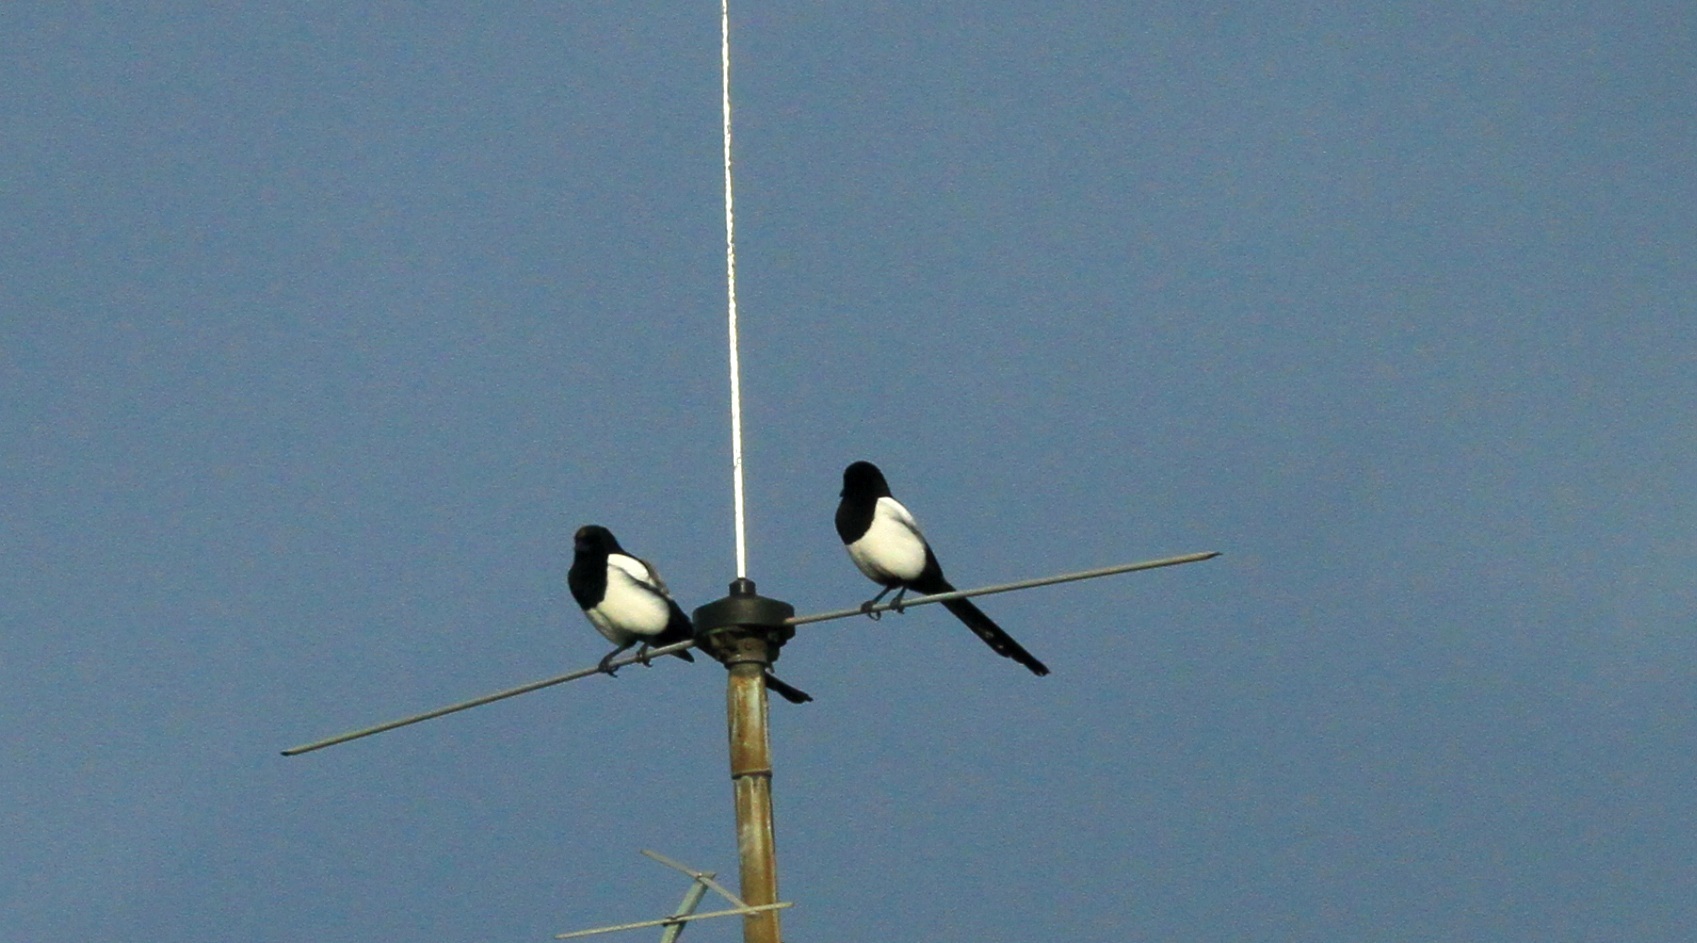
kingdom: Animalia
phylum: Chordata
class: Aves
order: Passeriformes
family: Corvidae
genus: Pica
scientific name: Pica pica
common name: Eurasian magpie
